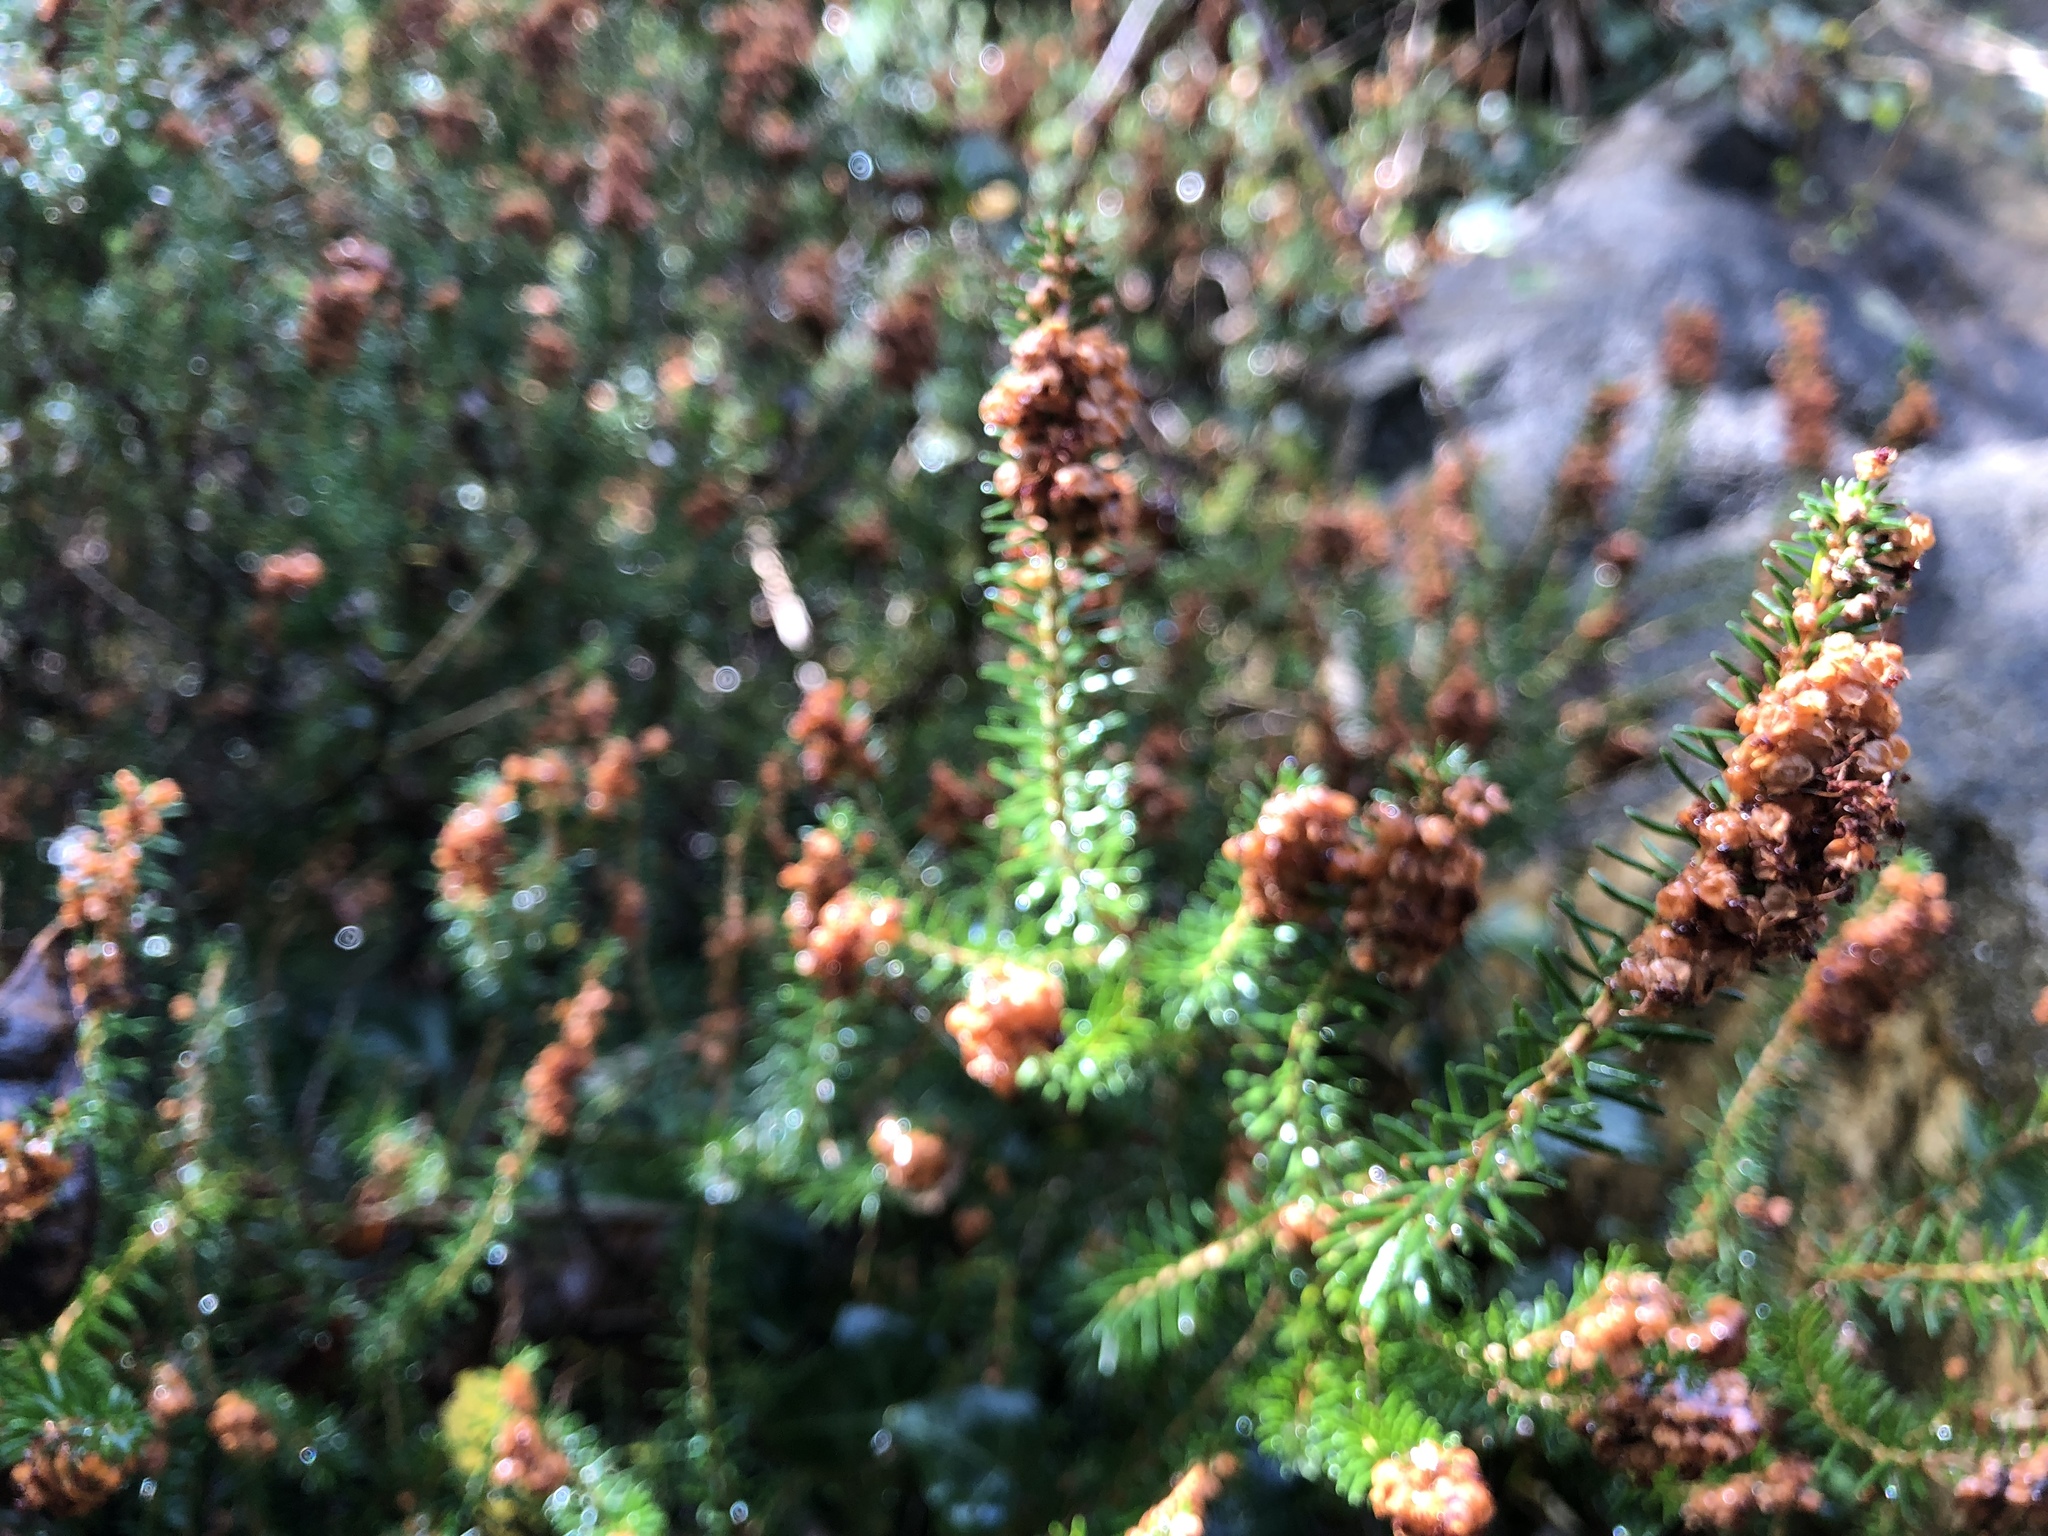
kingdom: Plantae
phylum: Tracheophyta
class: Magnoliopsida
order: Ericales
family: Ericaceae
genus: Erica
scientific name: Erica cinerea
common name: Bell heather
